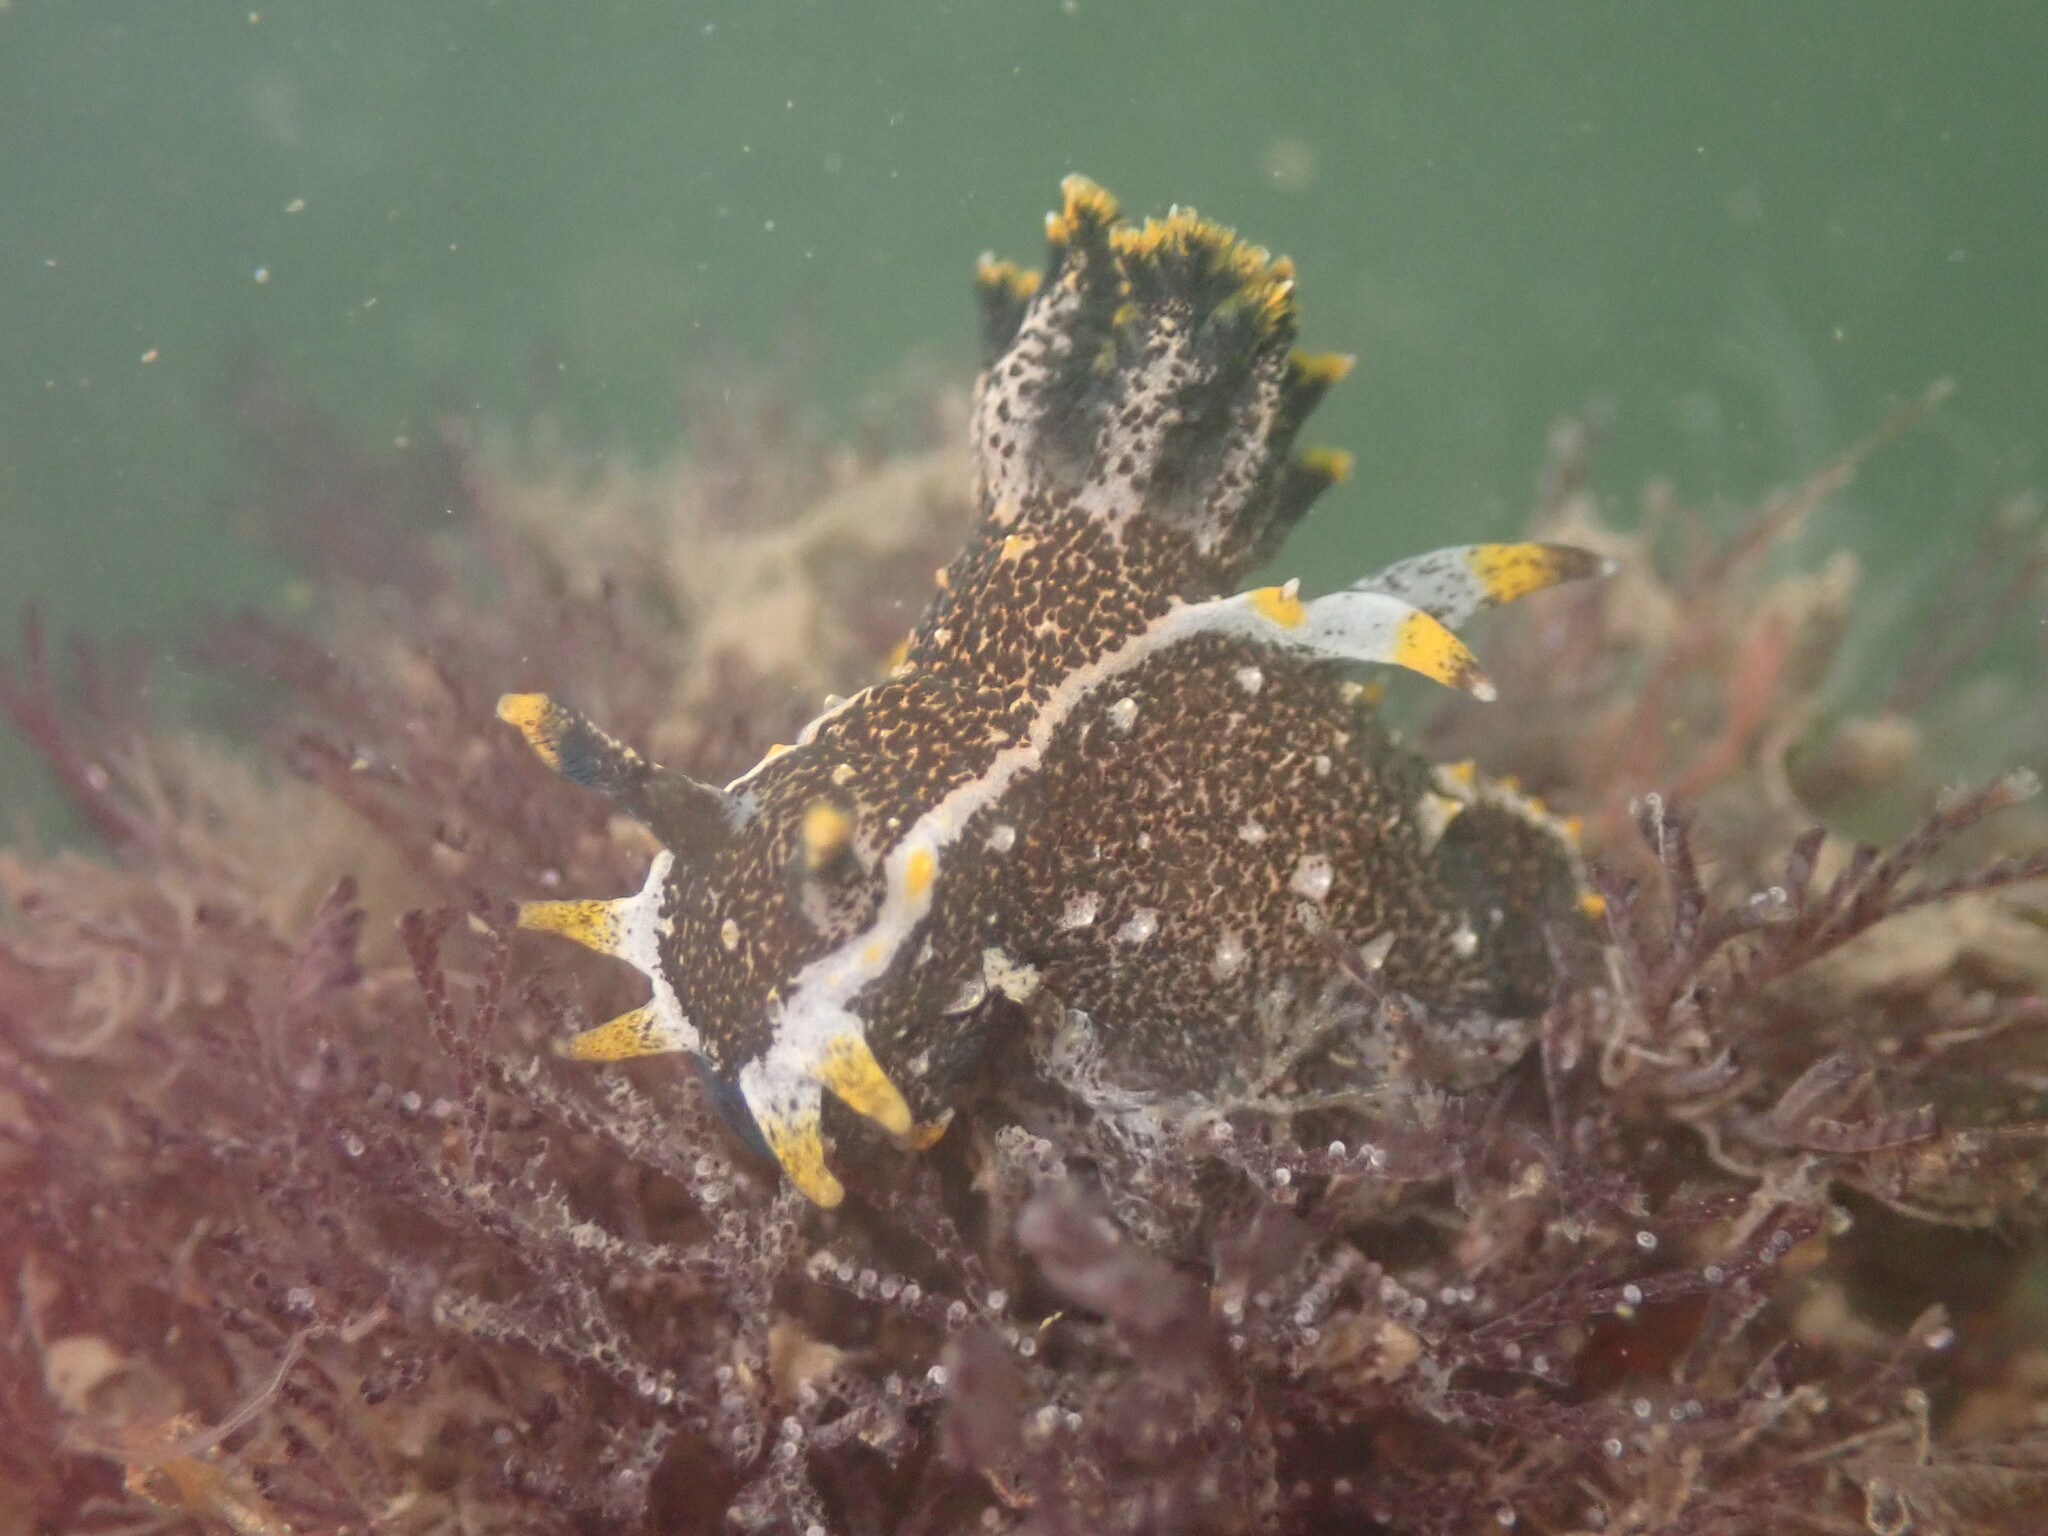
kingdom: Animalia
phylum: Mollusca
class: Gastropoda
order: Nudibranchia
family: Polyceridae
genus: Polycera
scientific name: Polycera hedgpethi
